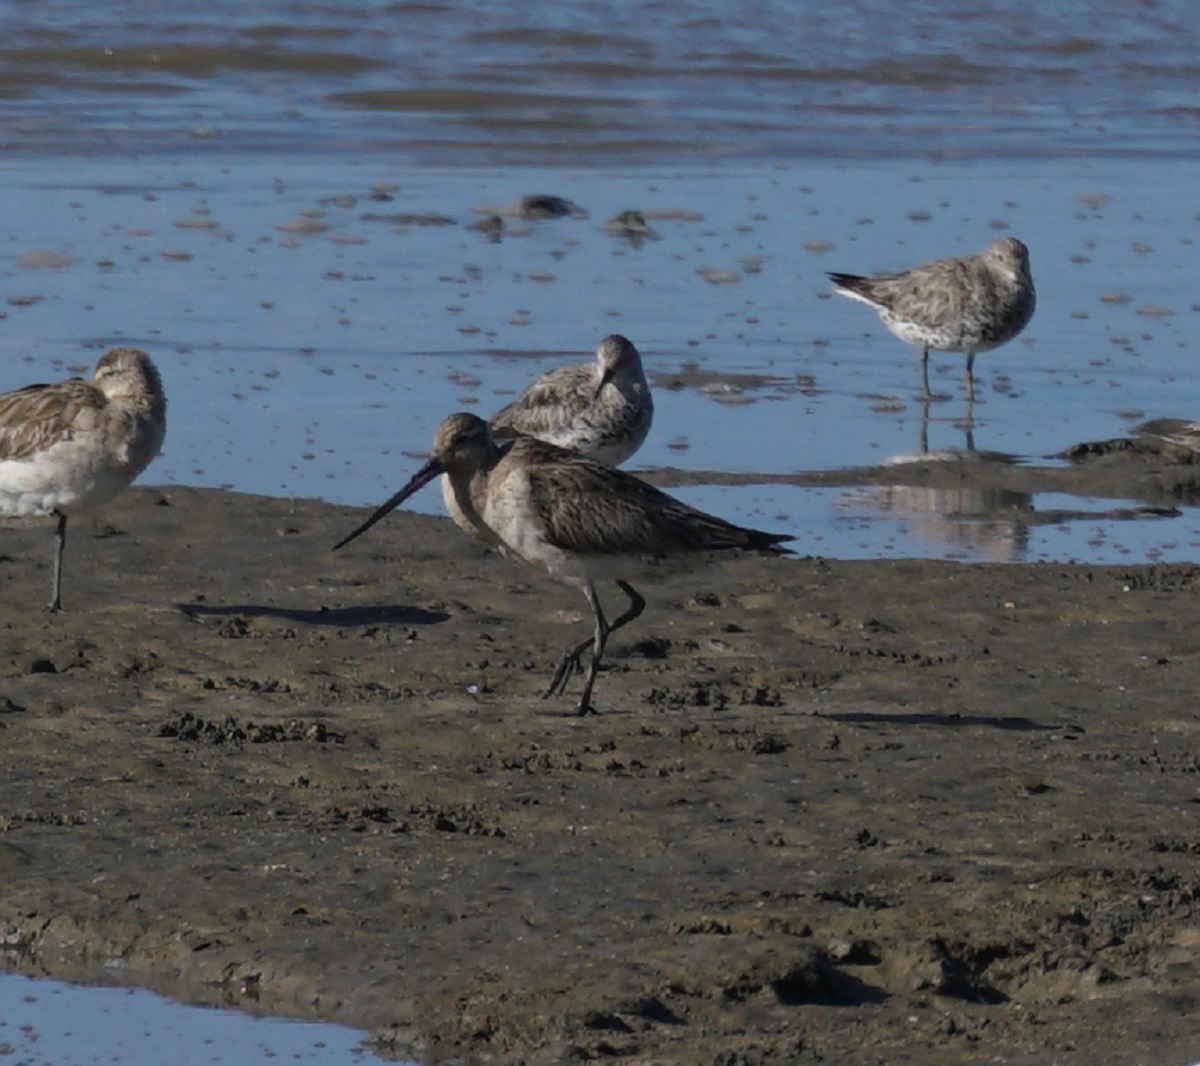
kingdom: Animalia
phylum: Chordata
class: Aves
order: Charadriiformes
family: Scolopacidae
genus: Limosa
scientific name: Limosa lapponica
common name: Bar-tailed godwit
